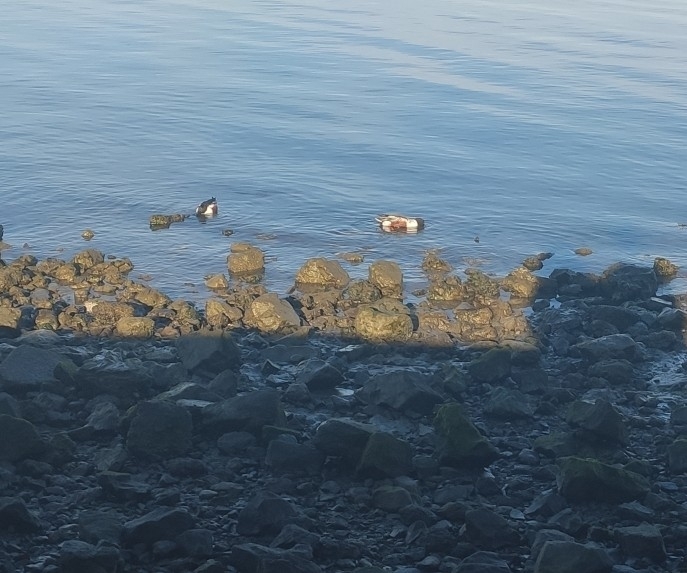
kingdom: Animalia
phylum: Chordata
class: Aves
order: Anseriformes
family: Anatidae
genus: Spatula
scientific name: Spatula clypeata
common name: Northern shoveler
